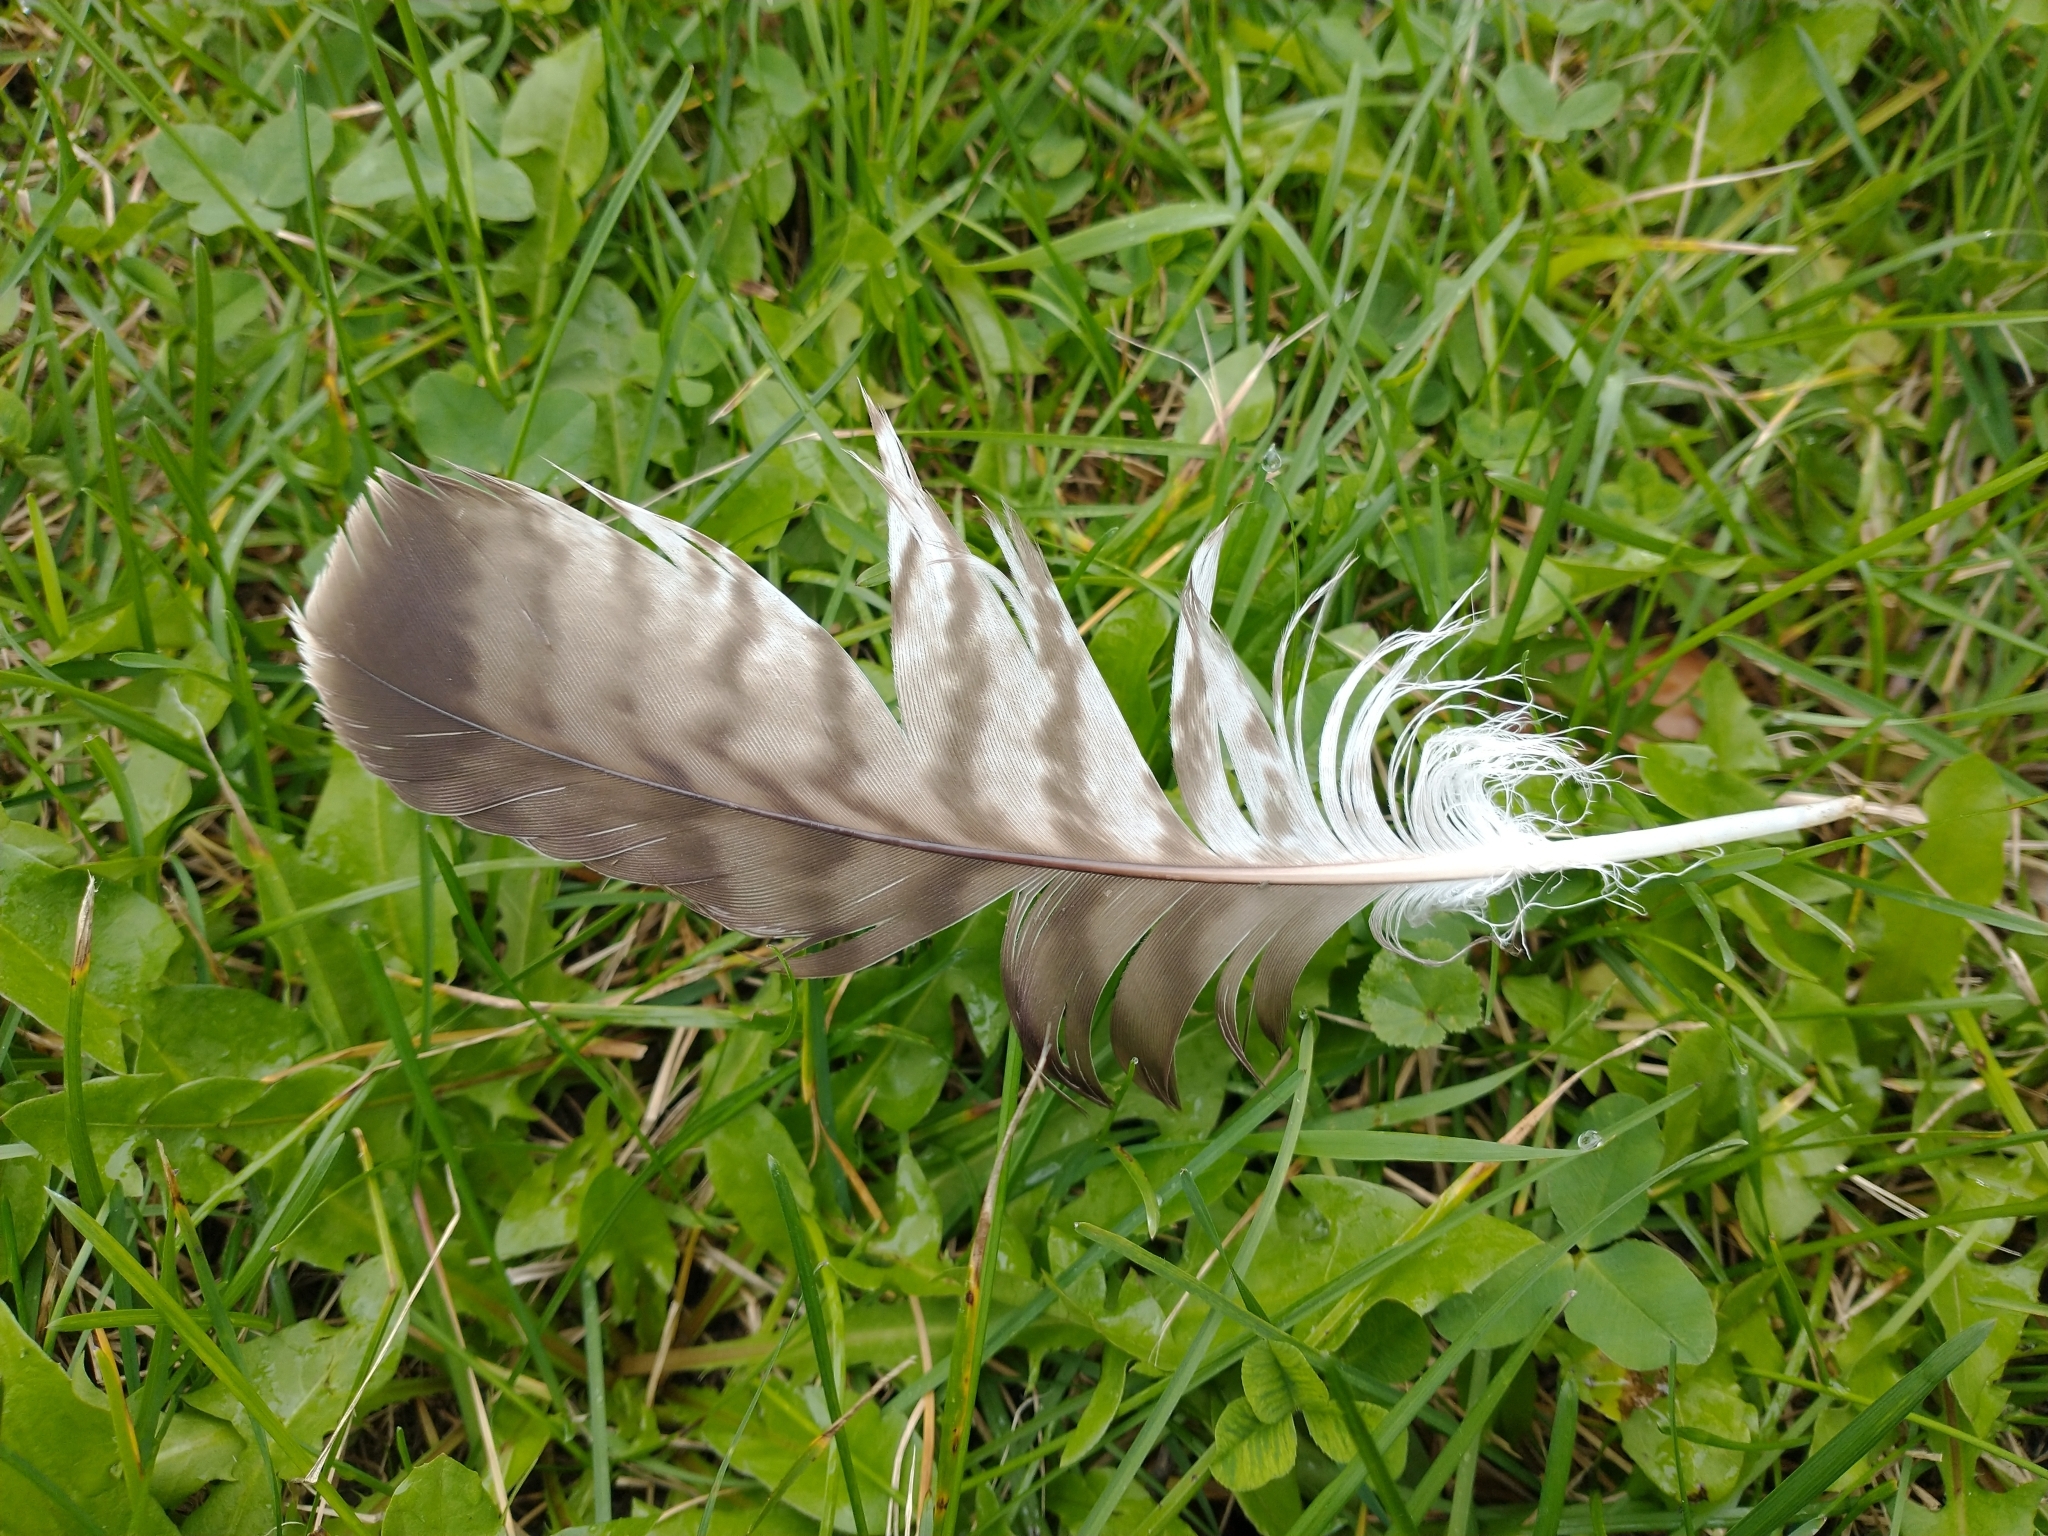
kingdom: Animalia
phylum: Chordata
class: Aves
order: Accipitriformes
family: Accipitridae
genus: Buteo
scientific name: Buteo jamaicensis
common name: Red-tailed hawk
